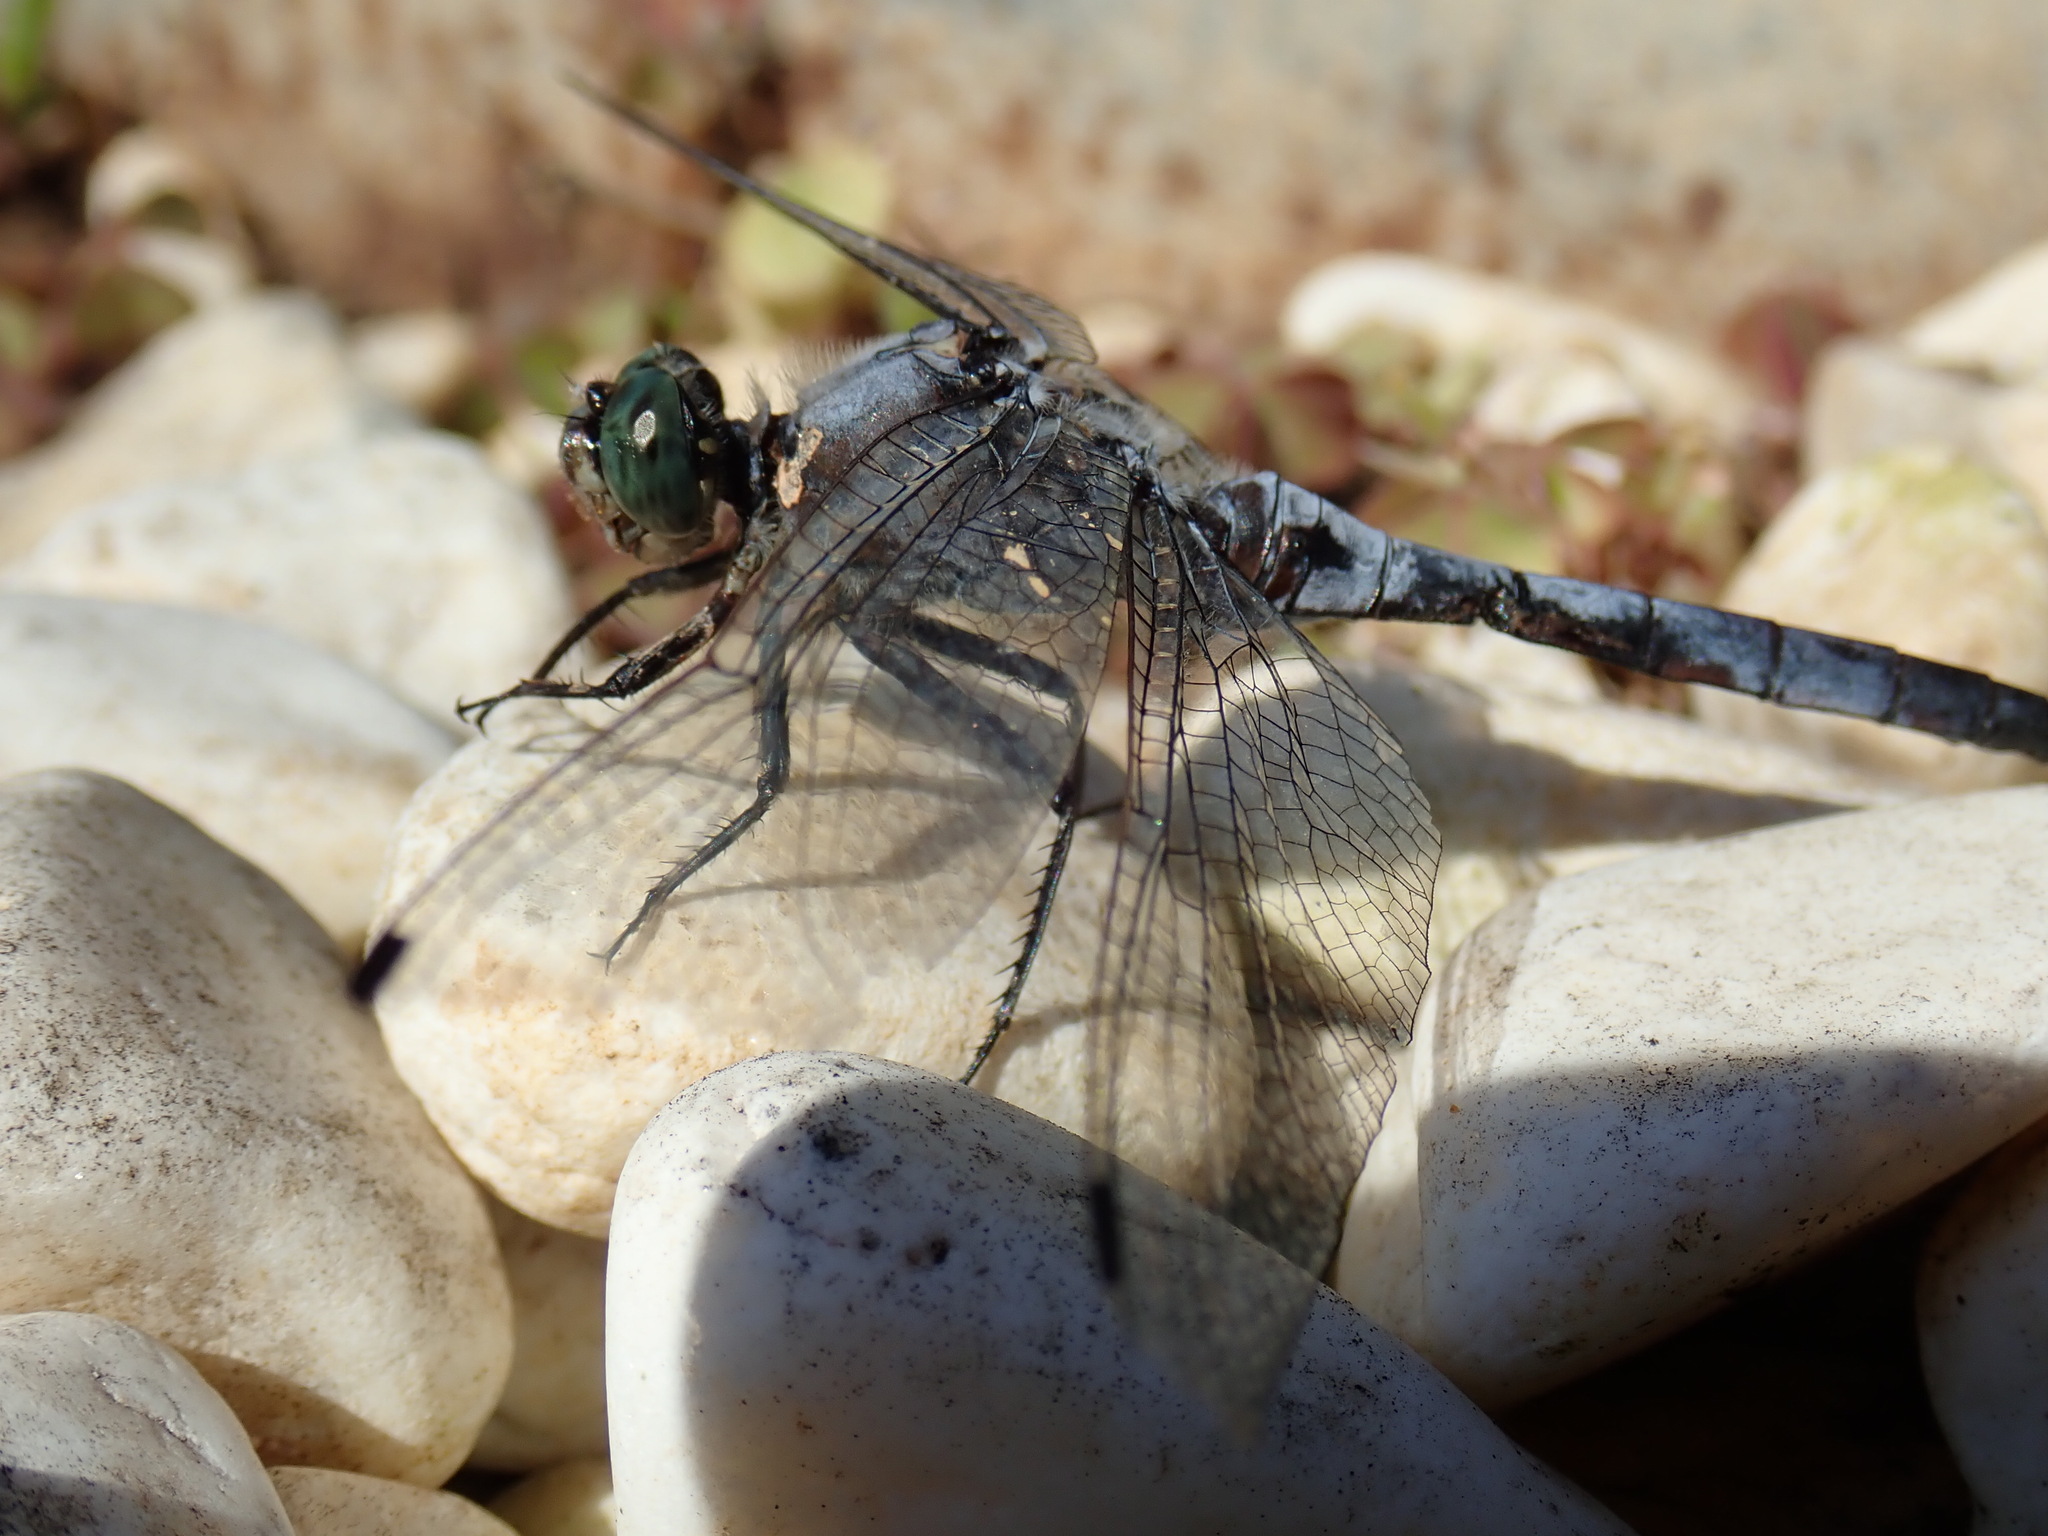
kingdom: Animalia
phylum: Arthropoda
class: Insecta
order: Odonata
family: Libellulidae
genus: Orthetrum
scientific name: Orthetrum cancellatum
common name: Black-tailed skimmer
